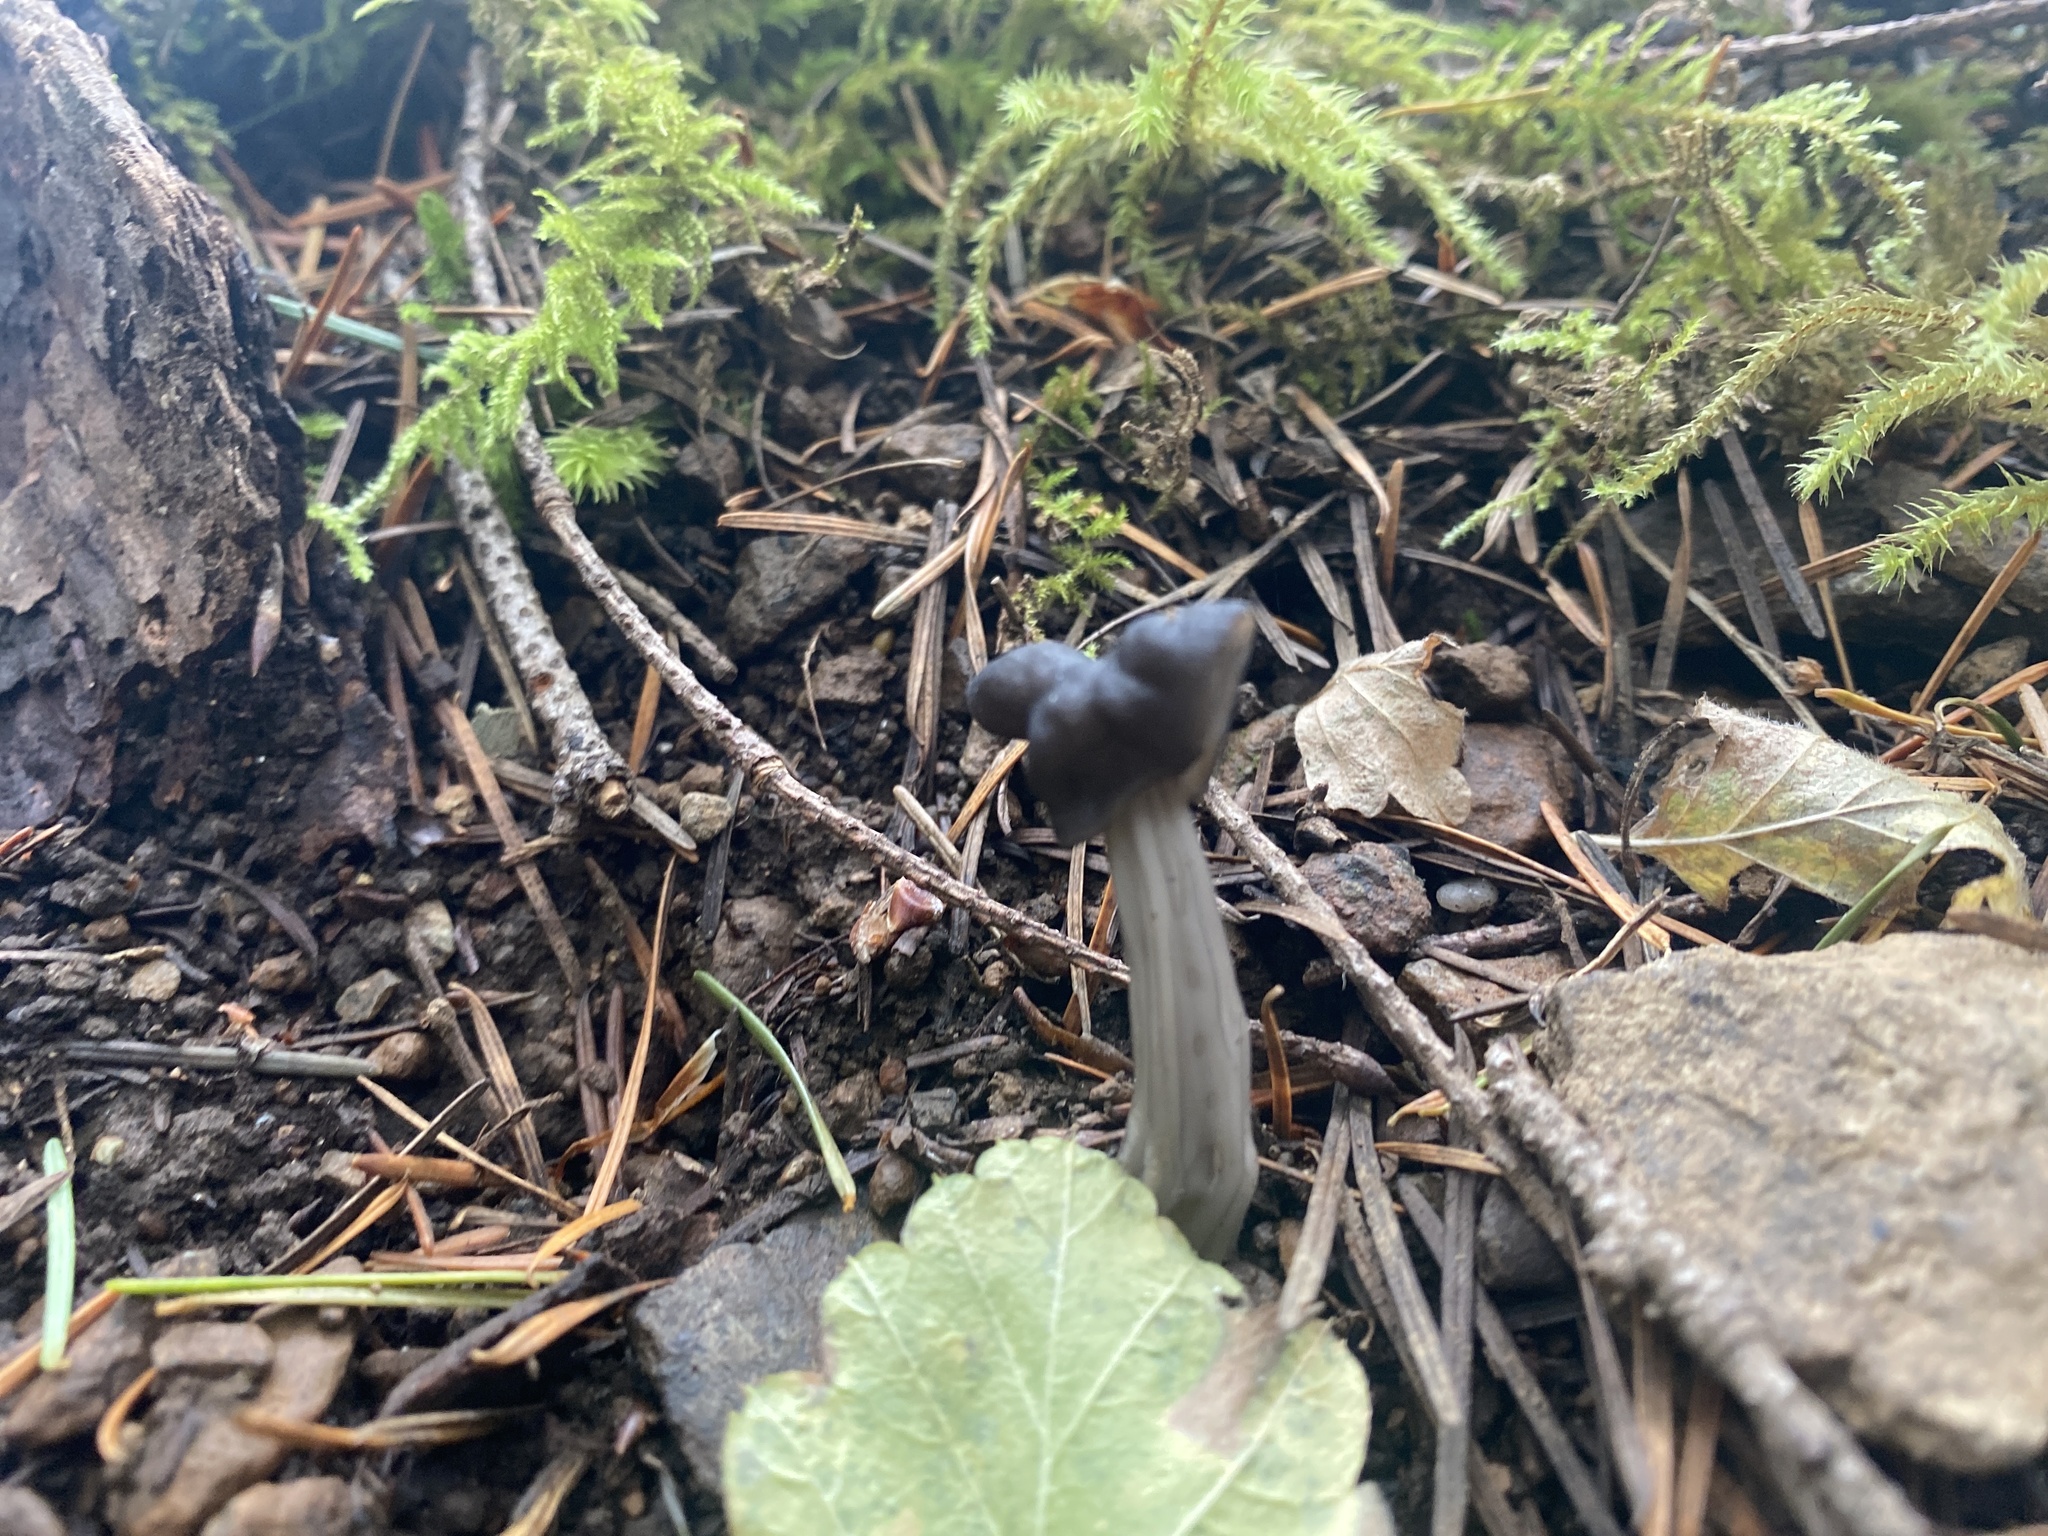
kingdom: Fungi
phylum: Ascomycota
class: Pezizomycetes
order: Pezizales
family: Helvellaceae
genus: Helvella
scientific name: Helvella vespertina
